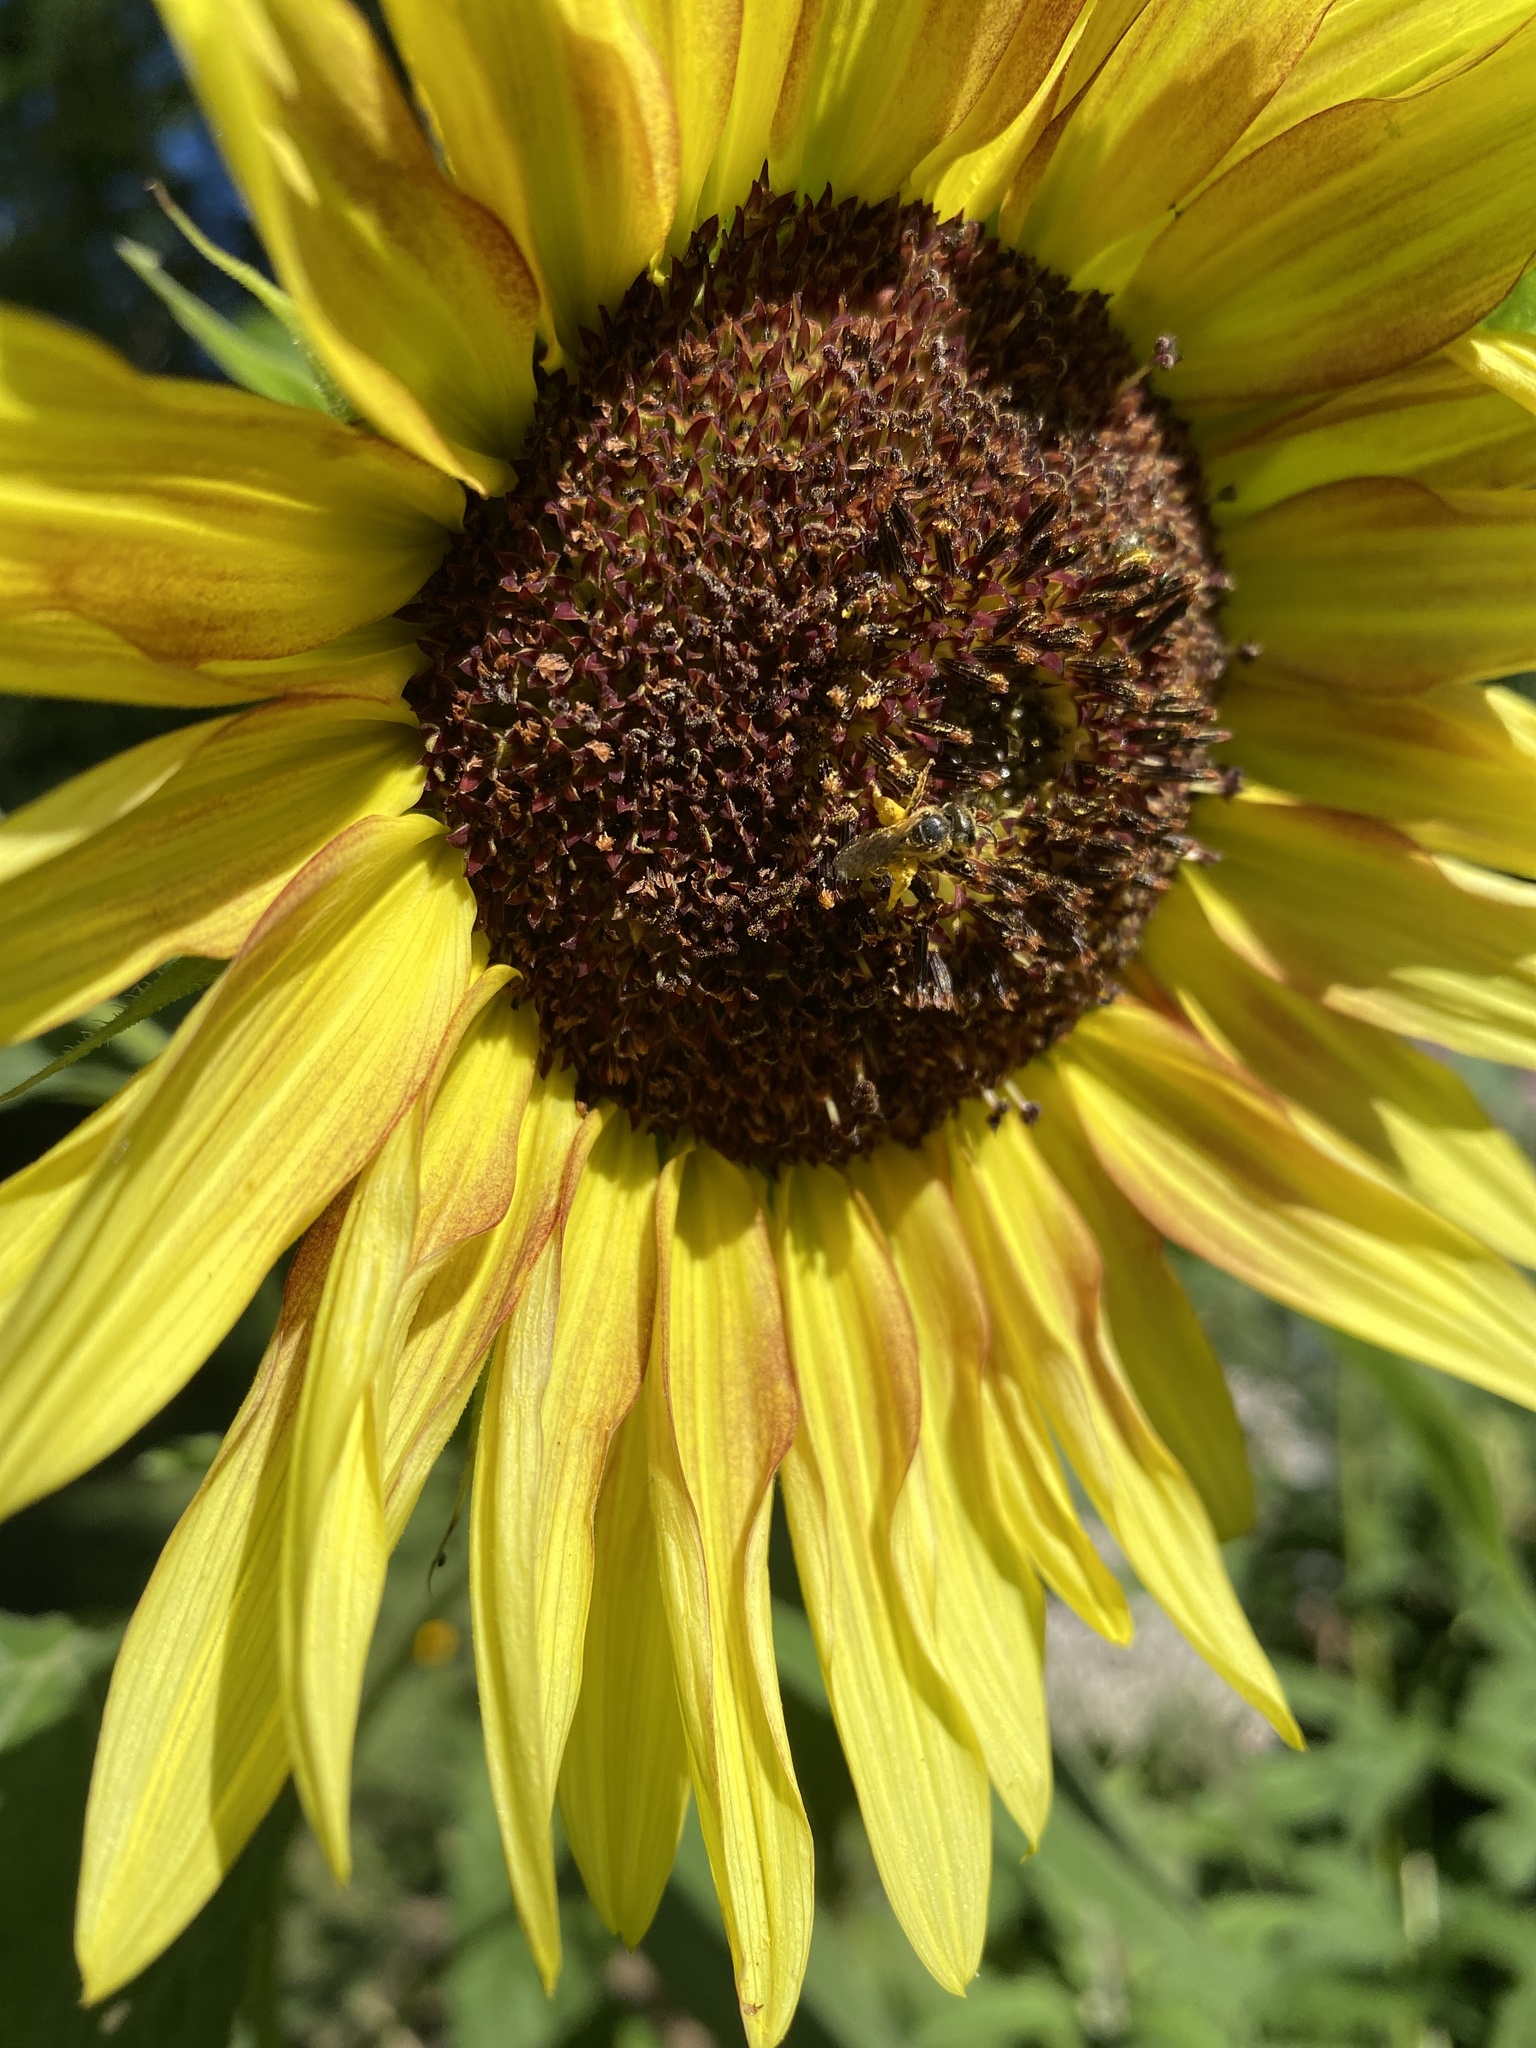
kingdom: Animalia
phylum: Arthropoda
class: Insecta
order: Hymenoptera
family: Halictidae
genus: Halictus
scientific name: Halictus ligatus
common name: Ligated furrow bee
